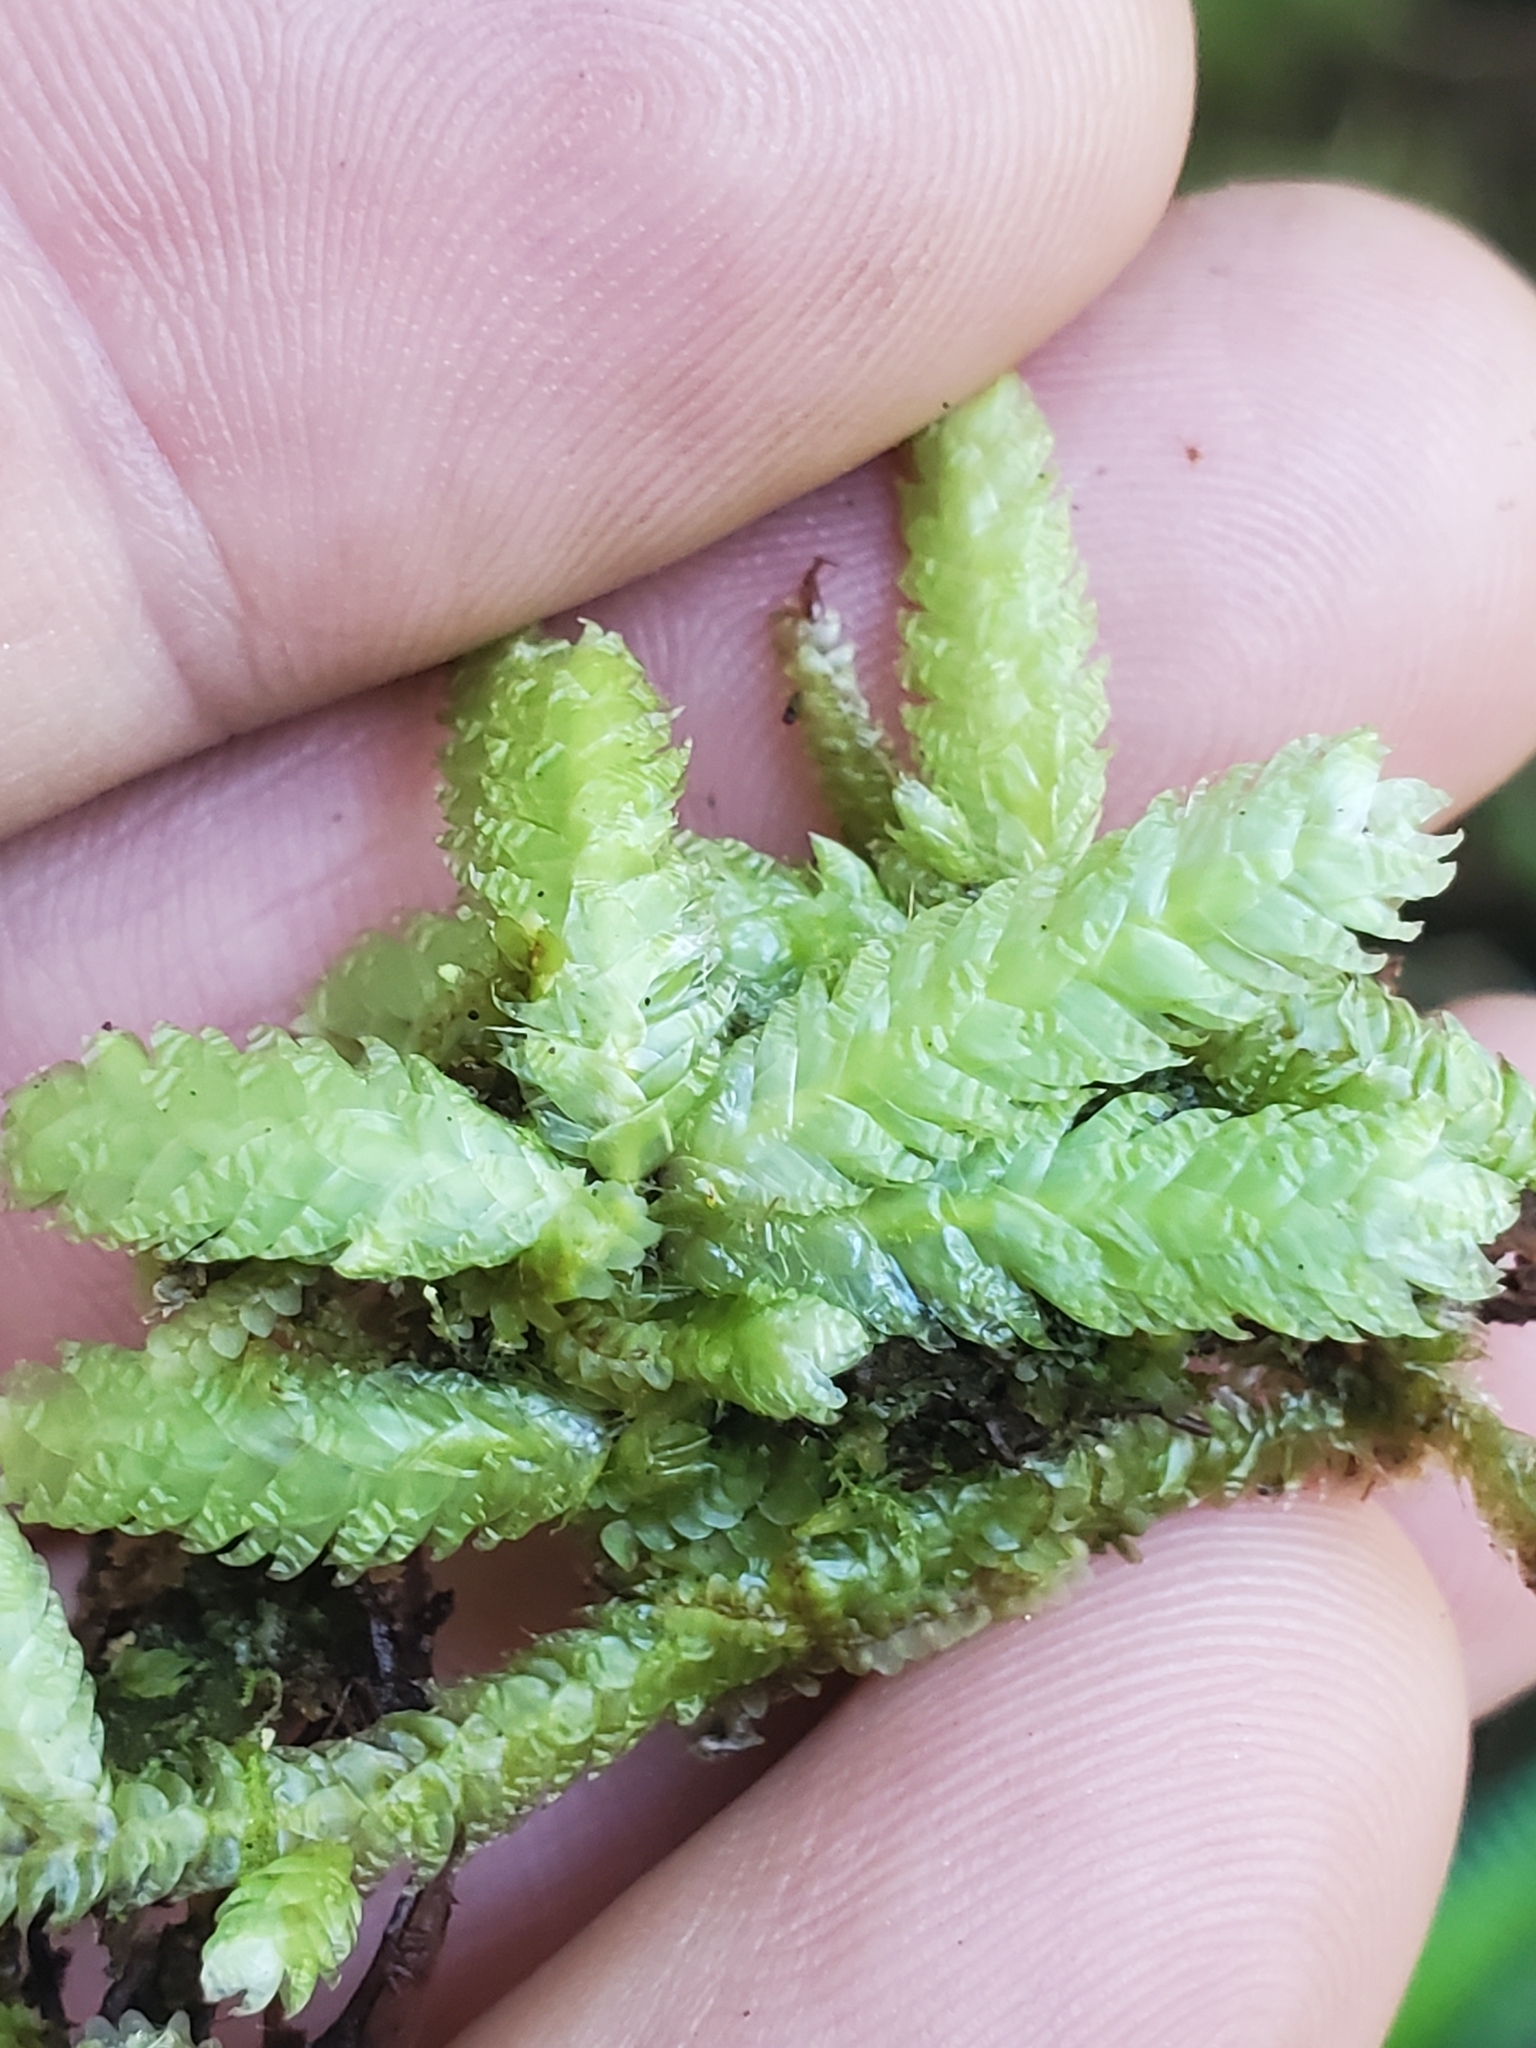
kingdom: Plantae
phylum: Bryophyta
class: Bryopsida
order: Hypnales
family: Plagiotheciaceae
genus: Plagiothecium
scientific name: Plagiothecium undulatum
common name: Waved silk-moss
